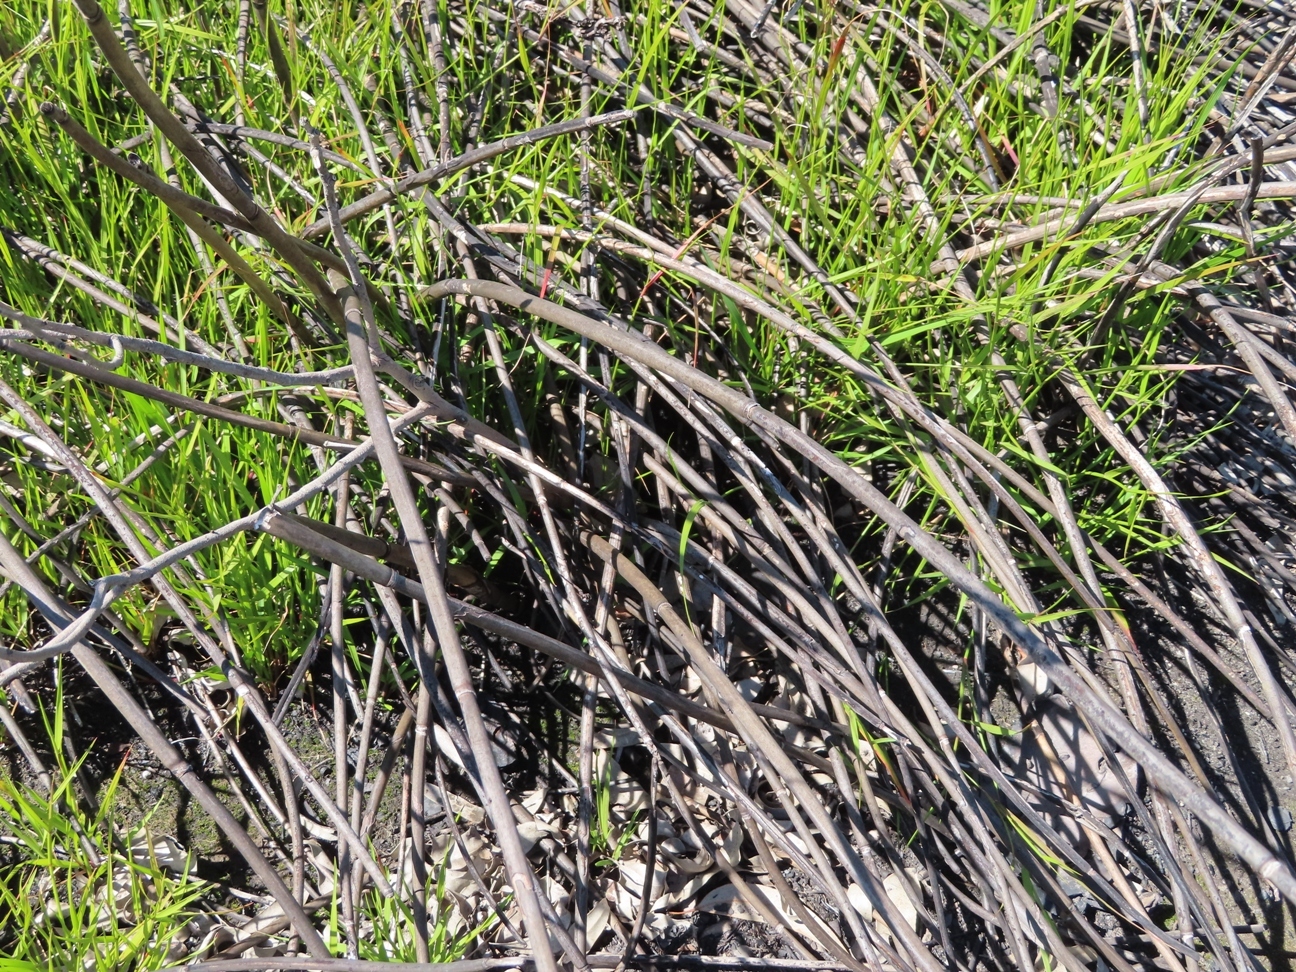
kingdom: Plantae
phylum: Tracheophyta
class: Liliopsida
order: Poales
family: Restionaceae
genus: Elegia
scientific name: Elegia mucronata
